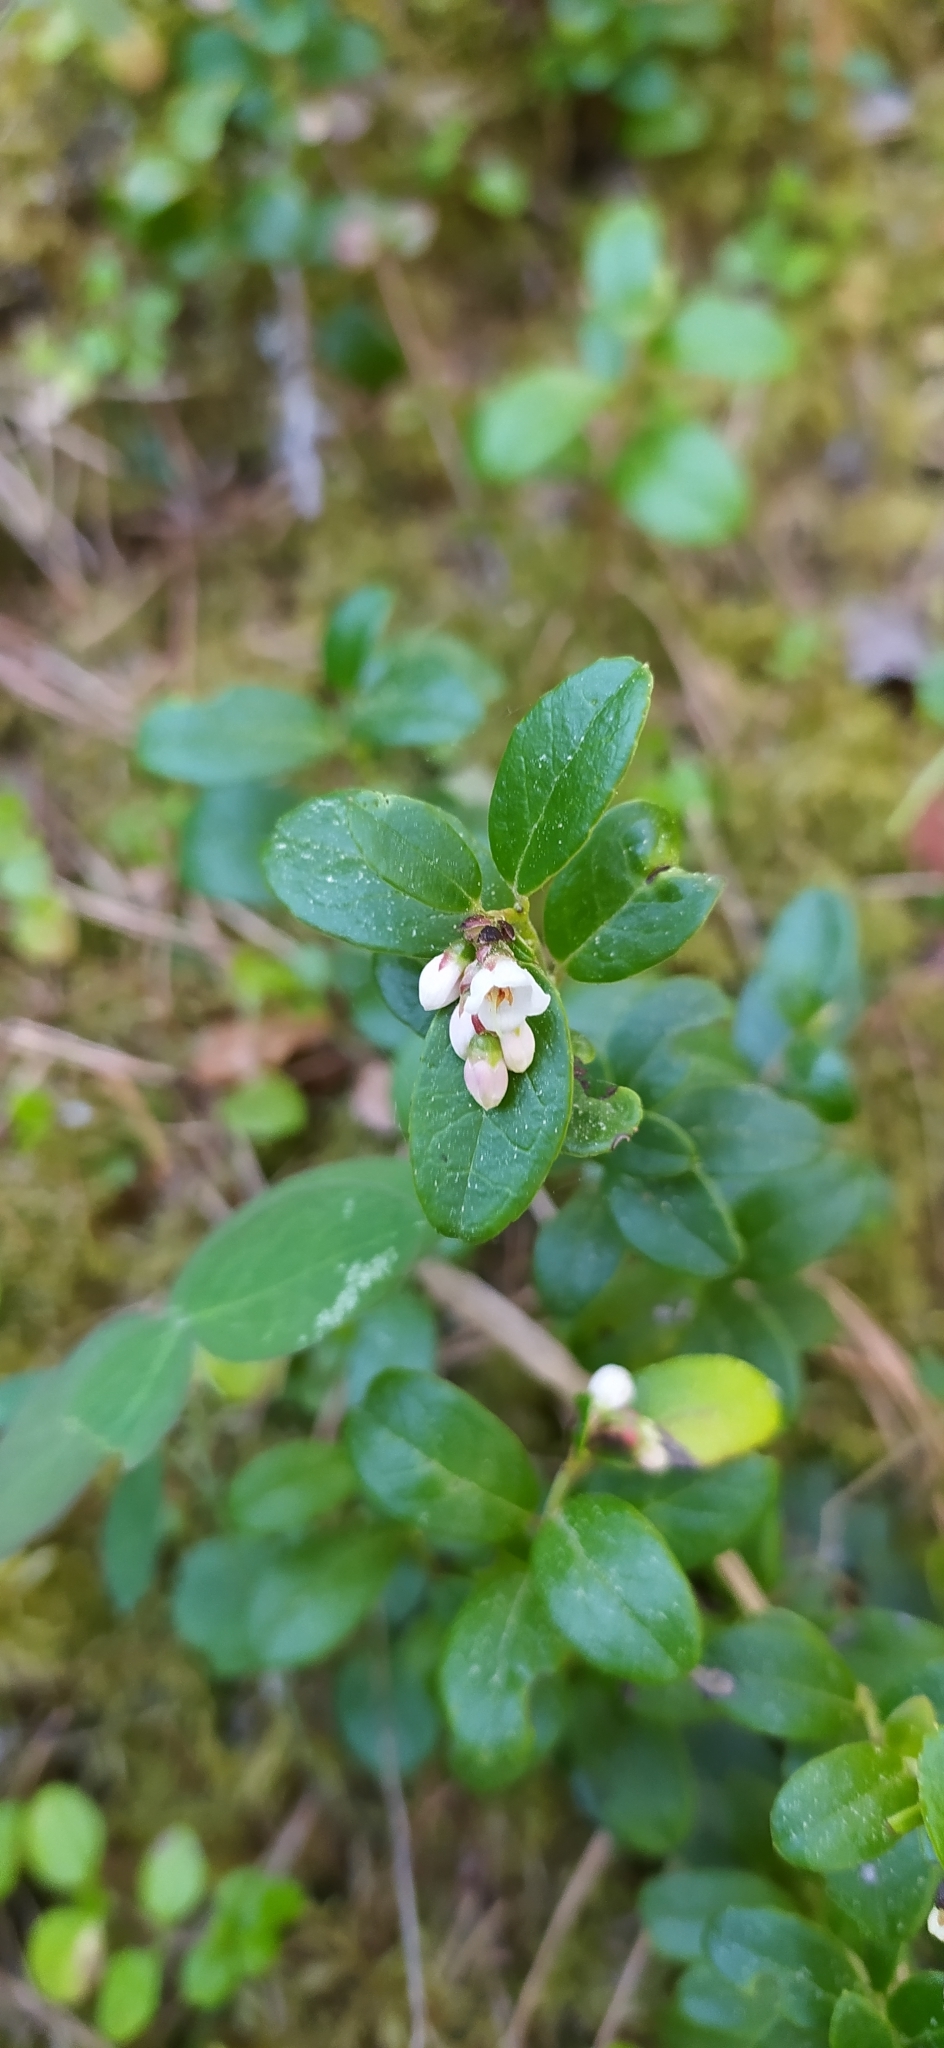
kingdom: Plantae
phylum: Tracheophyta
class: Magnoliopsida
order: Ericales
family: Ericaceae
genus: Vaccinium
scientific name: Vaccinium vitis-idaea
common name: Cowberry
